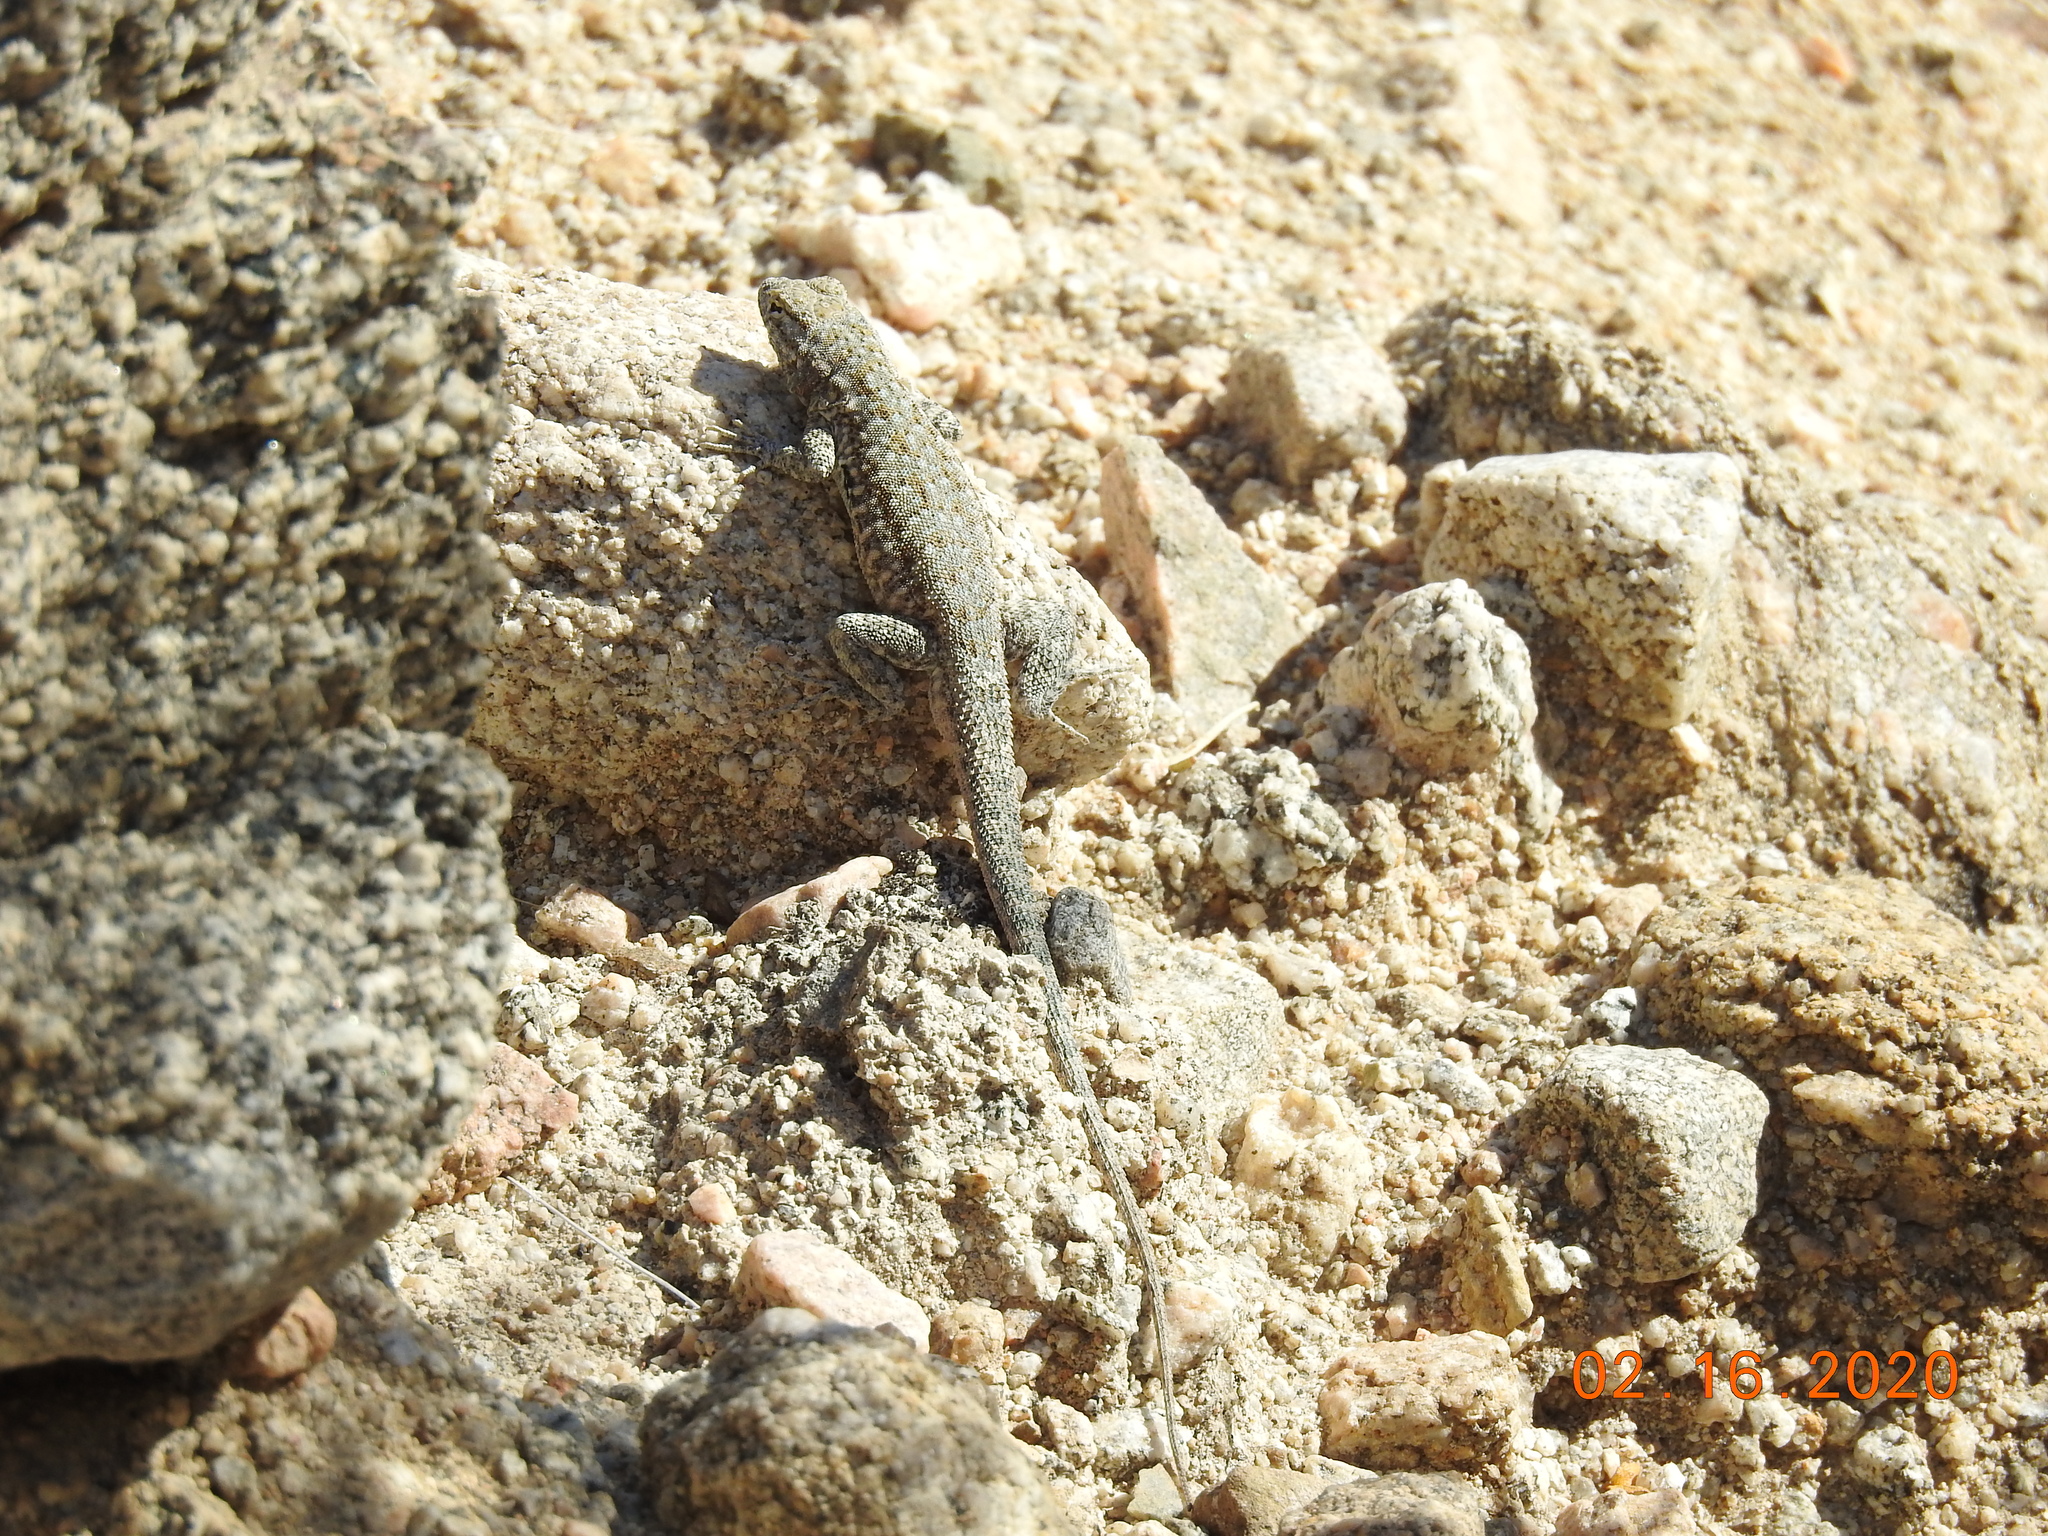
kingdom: Animalia
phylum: Chordata
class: Squamata
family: Phrynosomatidae
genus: Uta
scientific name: Uta stansburiana
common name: Side-blotched lizard
